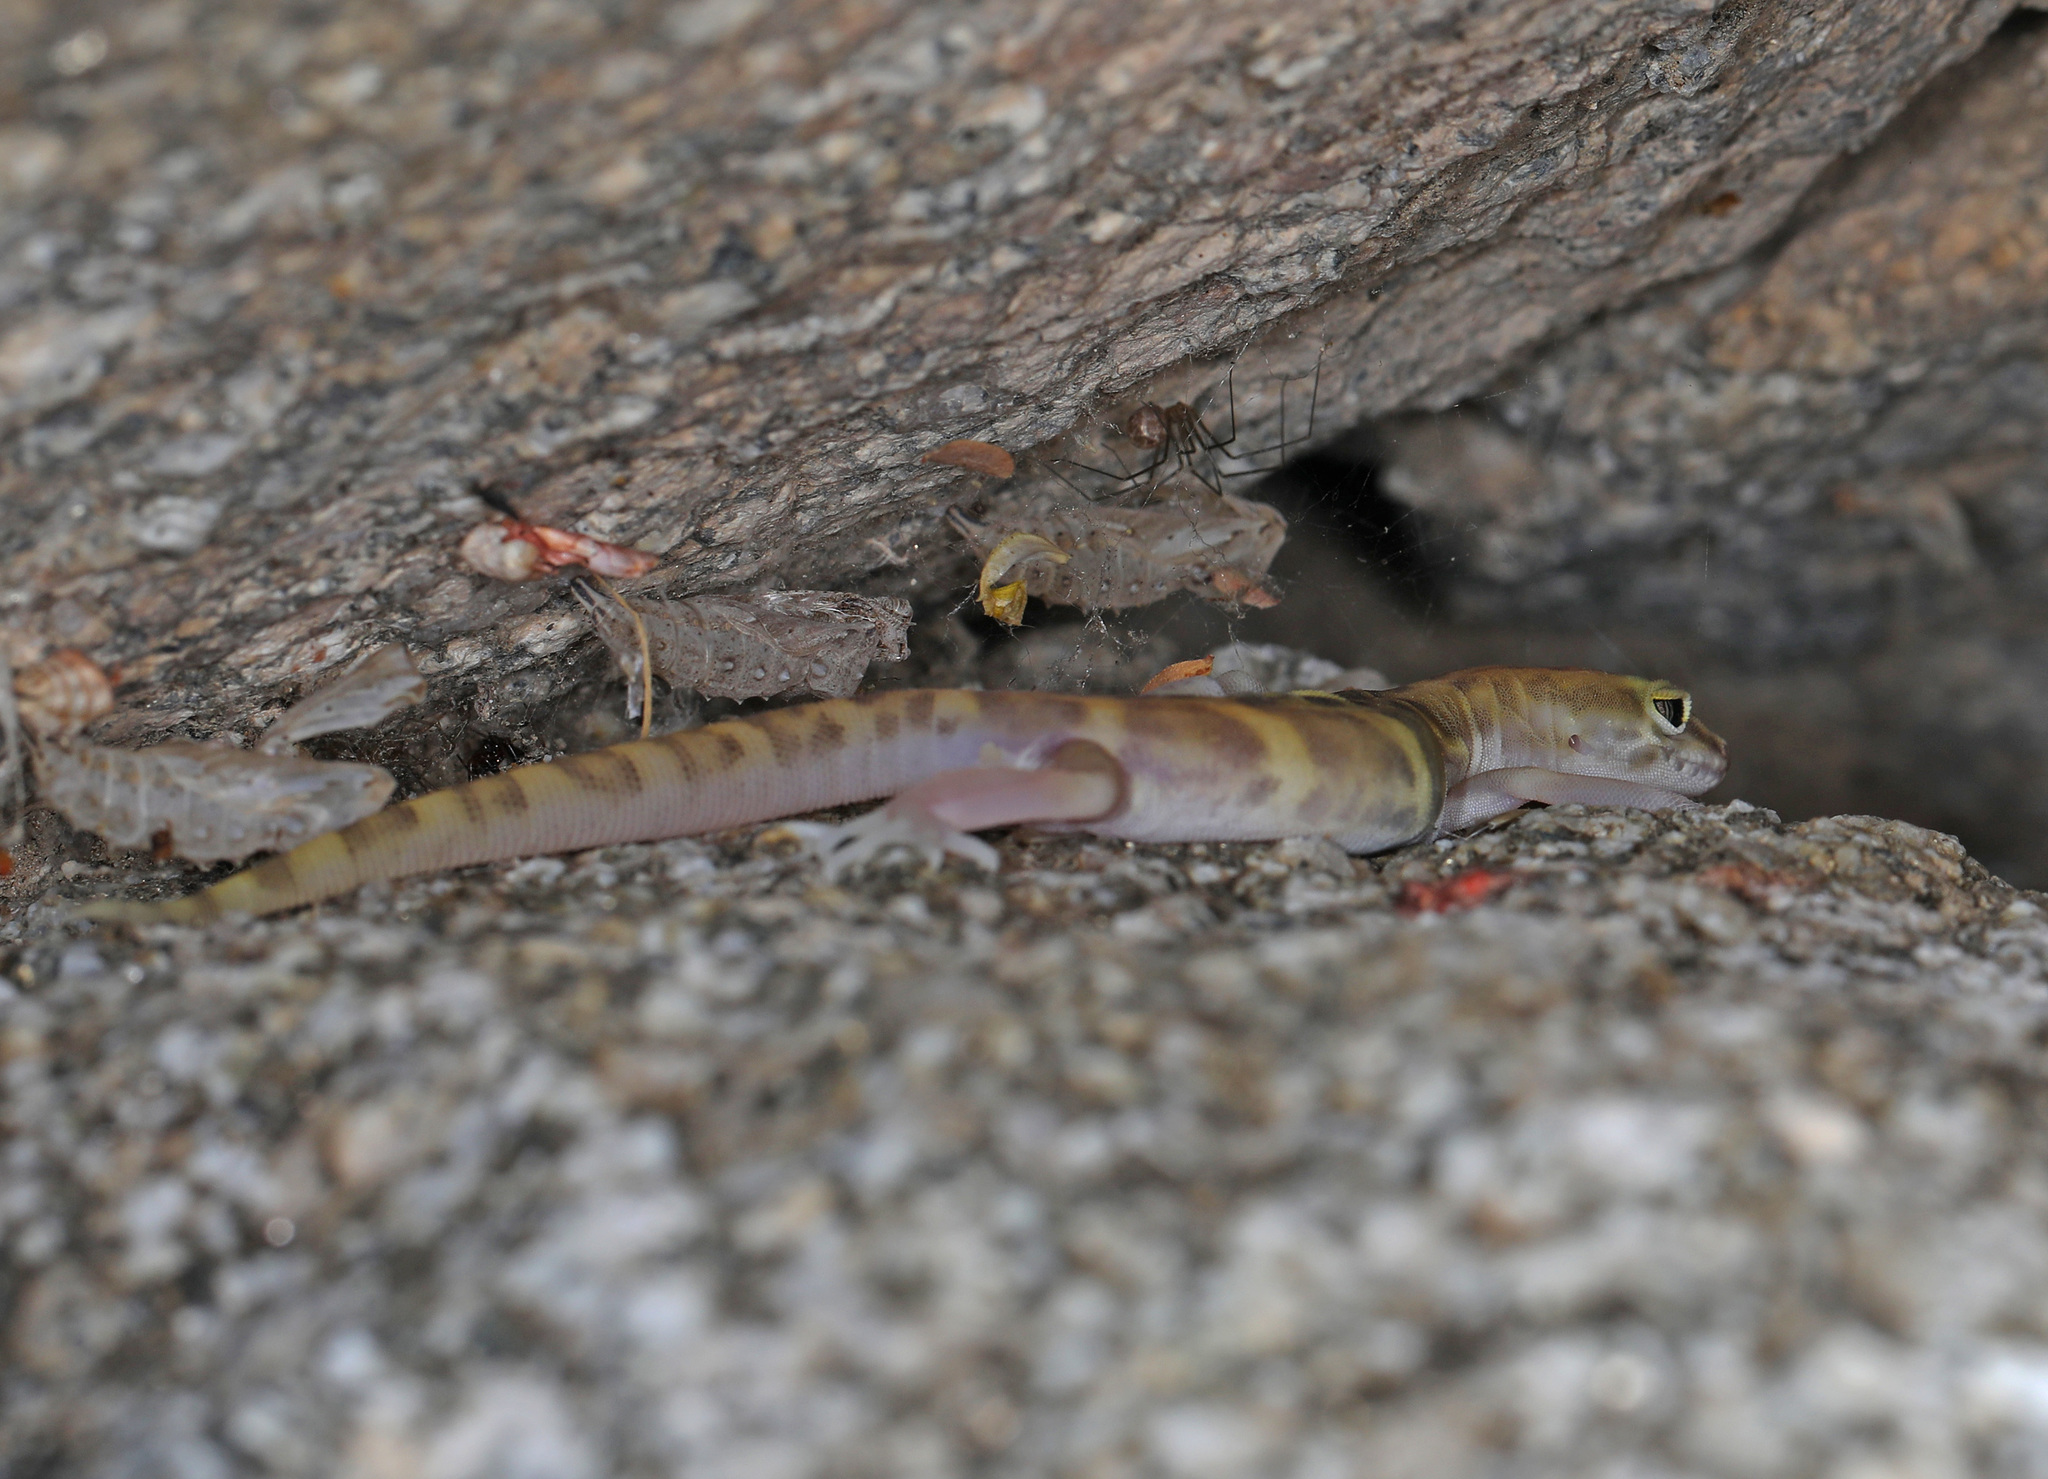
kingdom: Animalia
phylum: Chordata
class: Squamata
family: Eublepharidae
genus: Coleonyx
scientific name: Coleonyx variegatus
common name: Western banded gecko
